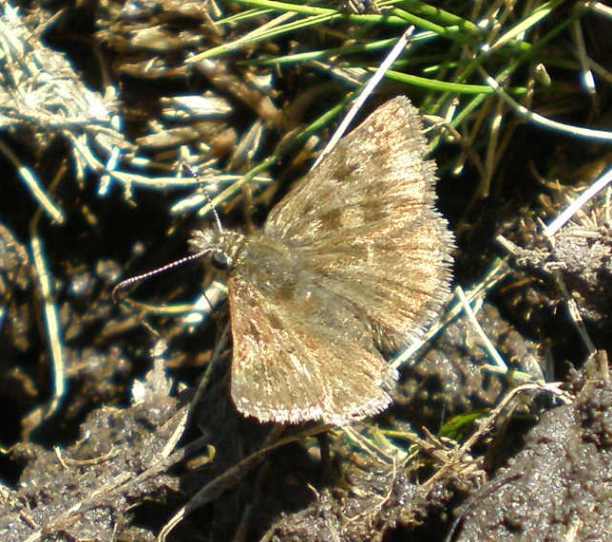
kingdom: Animalia
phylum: Arthropoda
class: Insecta
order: Lepidoptera
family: Hesperiidae
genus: Erynnis
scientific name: Erynnis tages
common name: Dingy skipper
